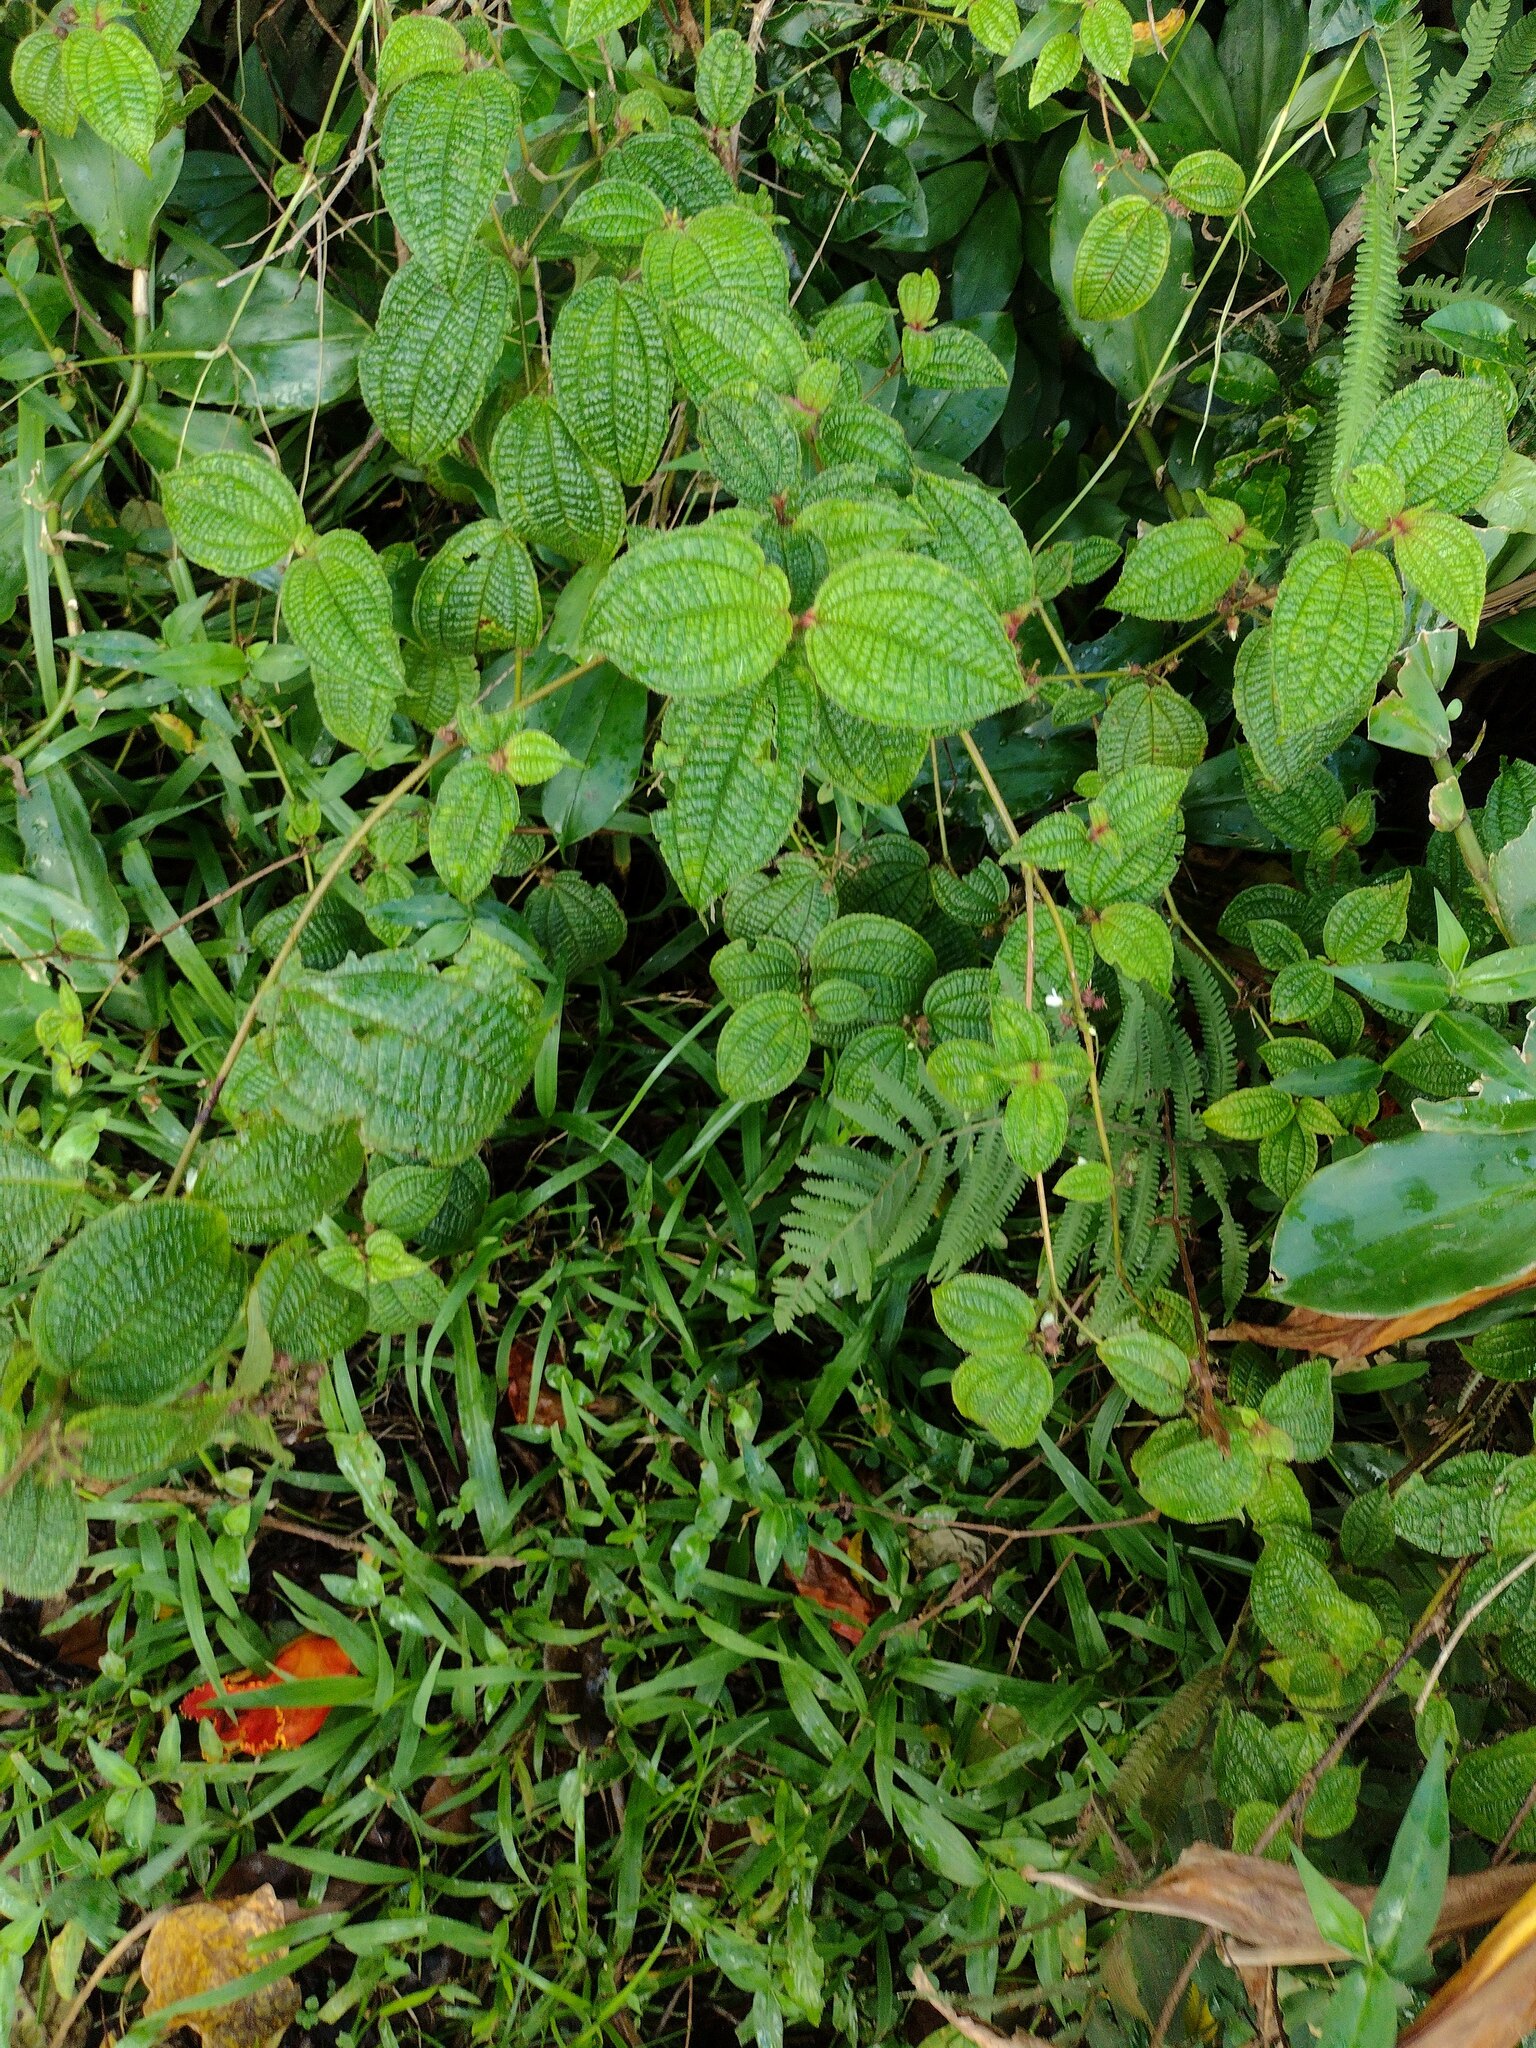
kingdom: Plantae
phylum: Tracheophyta
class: Magnoliopsida
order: Myrtales
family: Melastomataceae
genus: Miconia
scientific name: Miconia crenata
